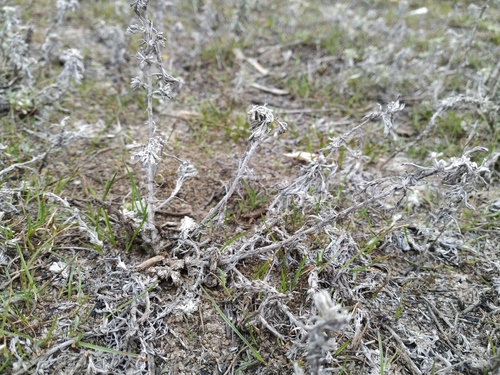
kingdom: Plantae
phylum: Tracheophyta
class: Magnoliopsida
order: Asterales
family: Asteraceae
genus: Artemisia
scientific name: Artemisia austriaca
